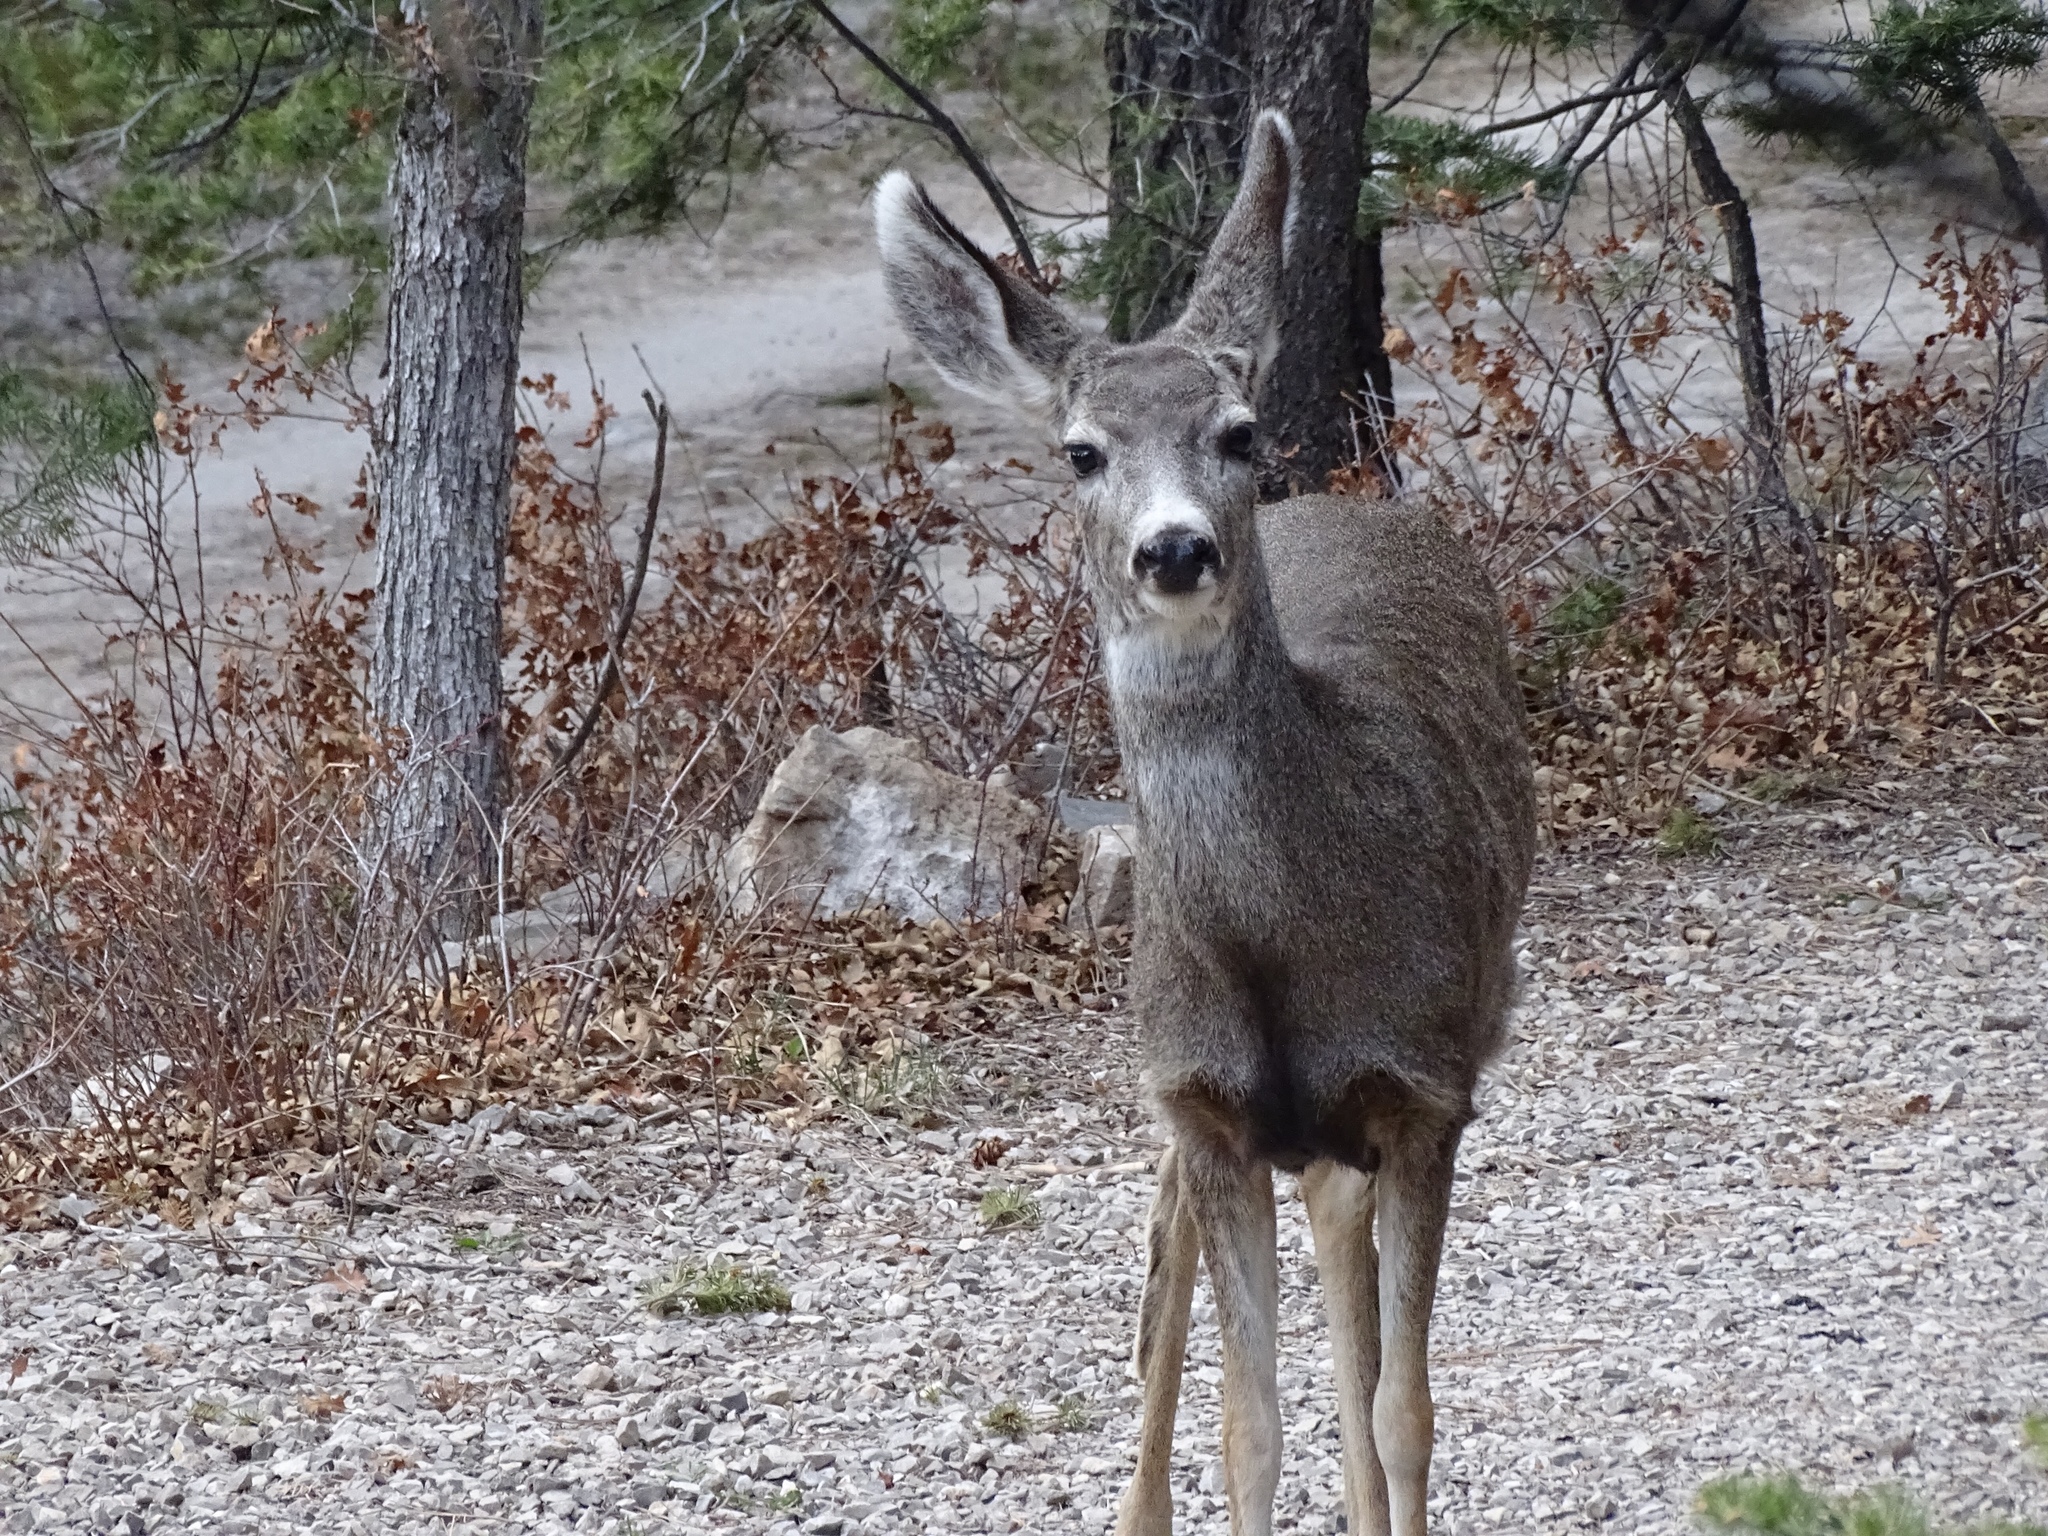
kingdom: Animalia
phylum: Chordata
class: Mammalia
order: Artiodactyla
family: Cervidae
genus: Odocoileus
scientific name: Odocoileus hemionus
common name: Mule deer
